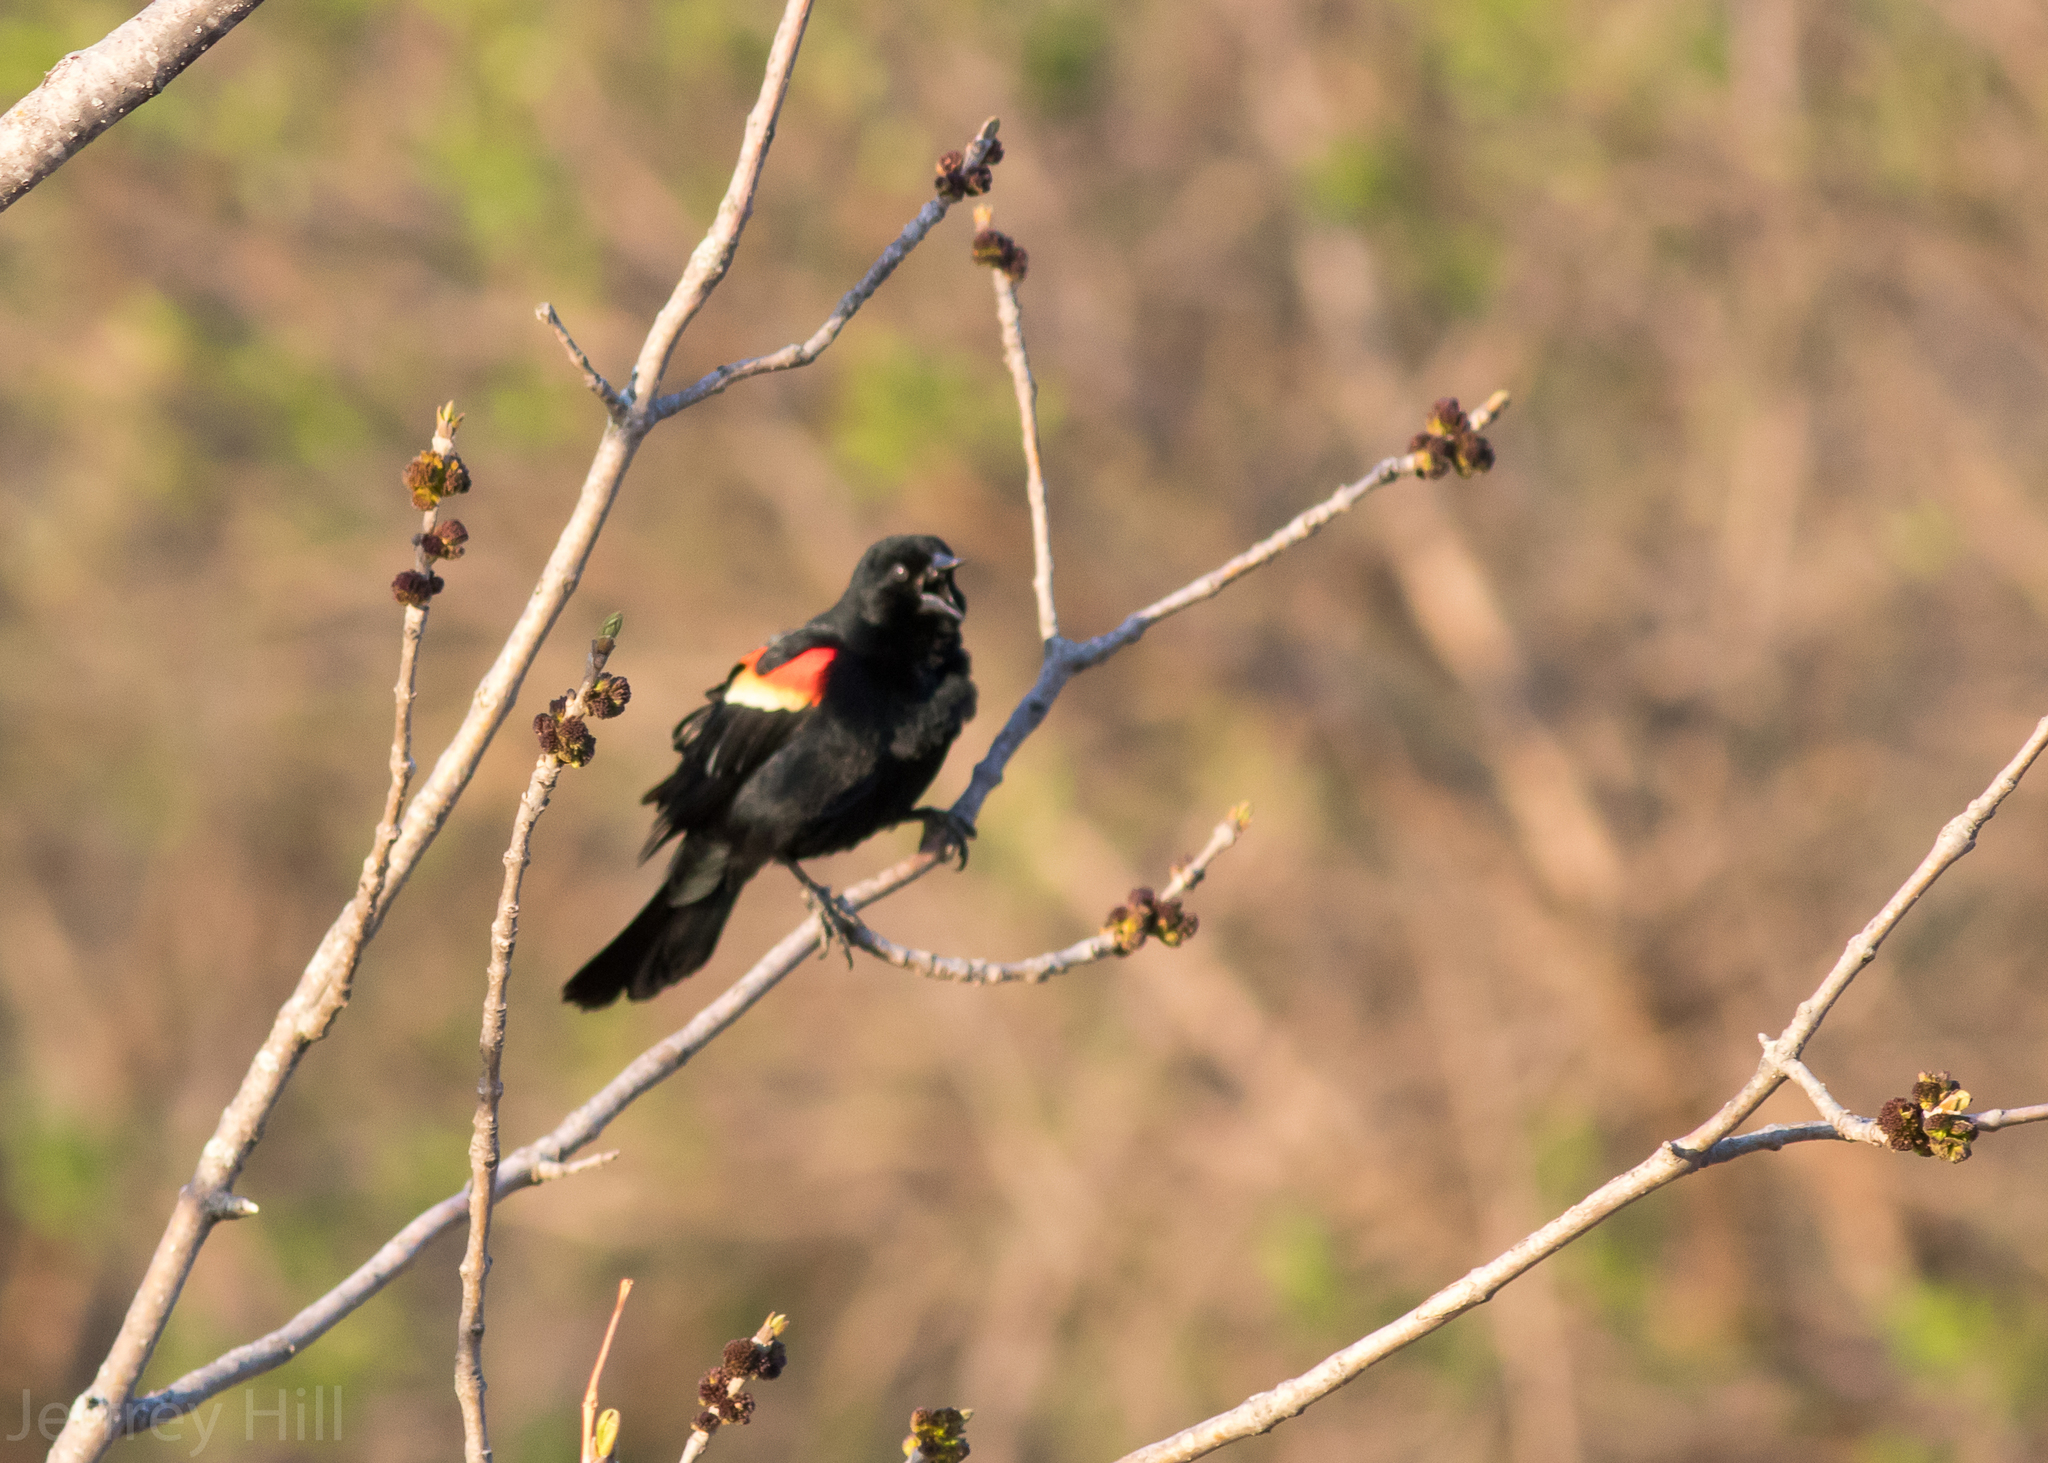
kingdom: Animalia
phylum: Chordata
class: Aves
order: Passeriformes
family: Icteridae
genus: Agelaius
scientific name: Agelaius phoeniceus
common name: Red-winged blackbird
